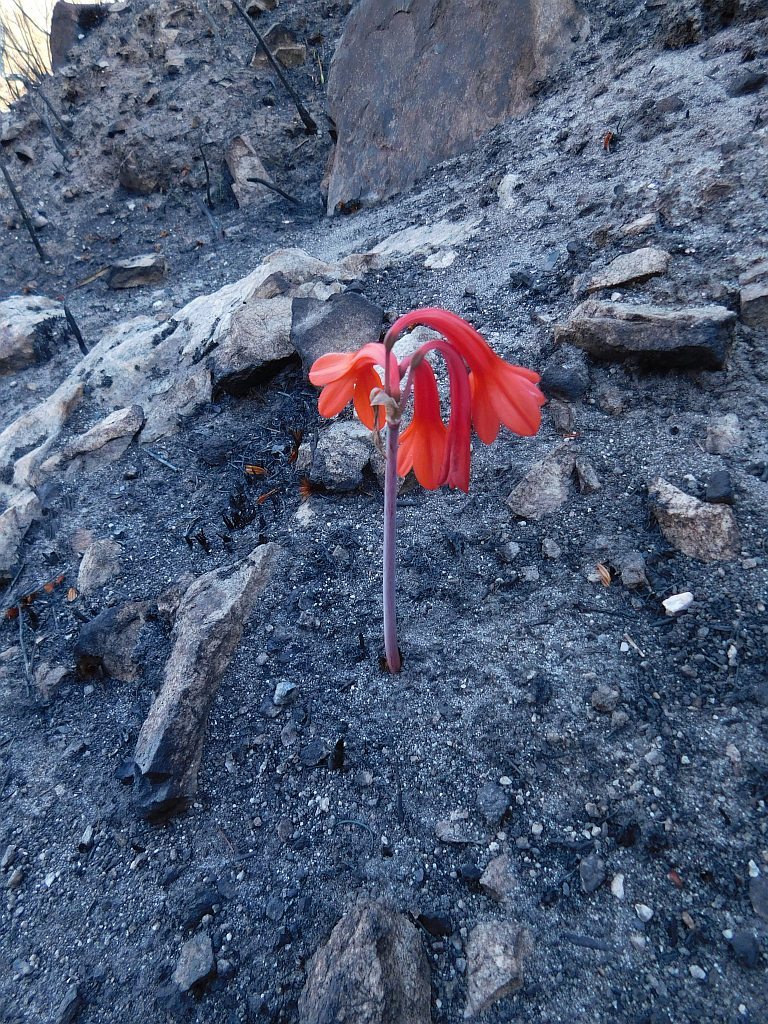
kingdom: Plantae
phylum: Tracheophyta
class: Liliopsida
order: Asparagales
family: Amaryllidaceae
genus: Cyrtanthus
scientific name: Cyrtanthus ventricosus
